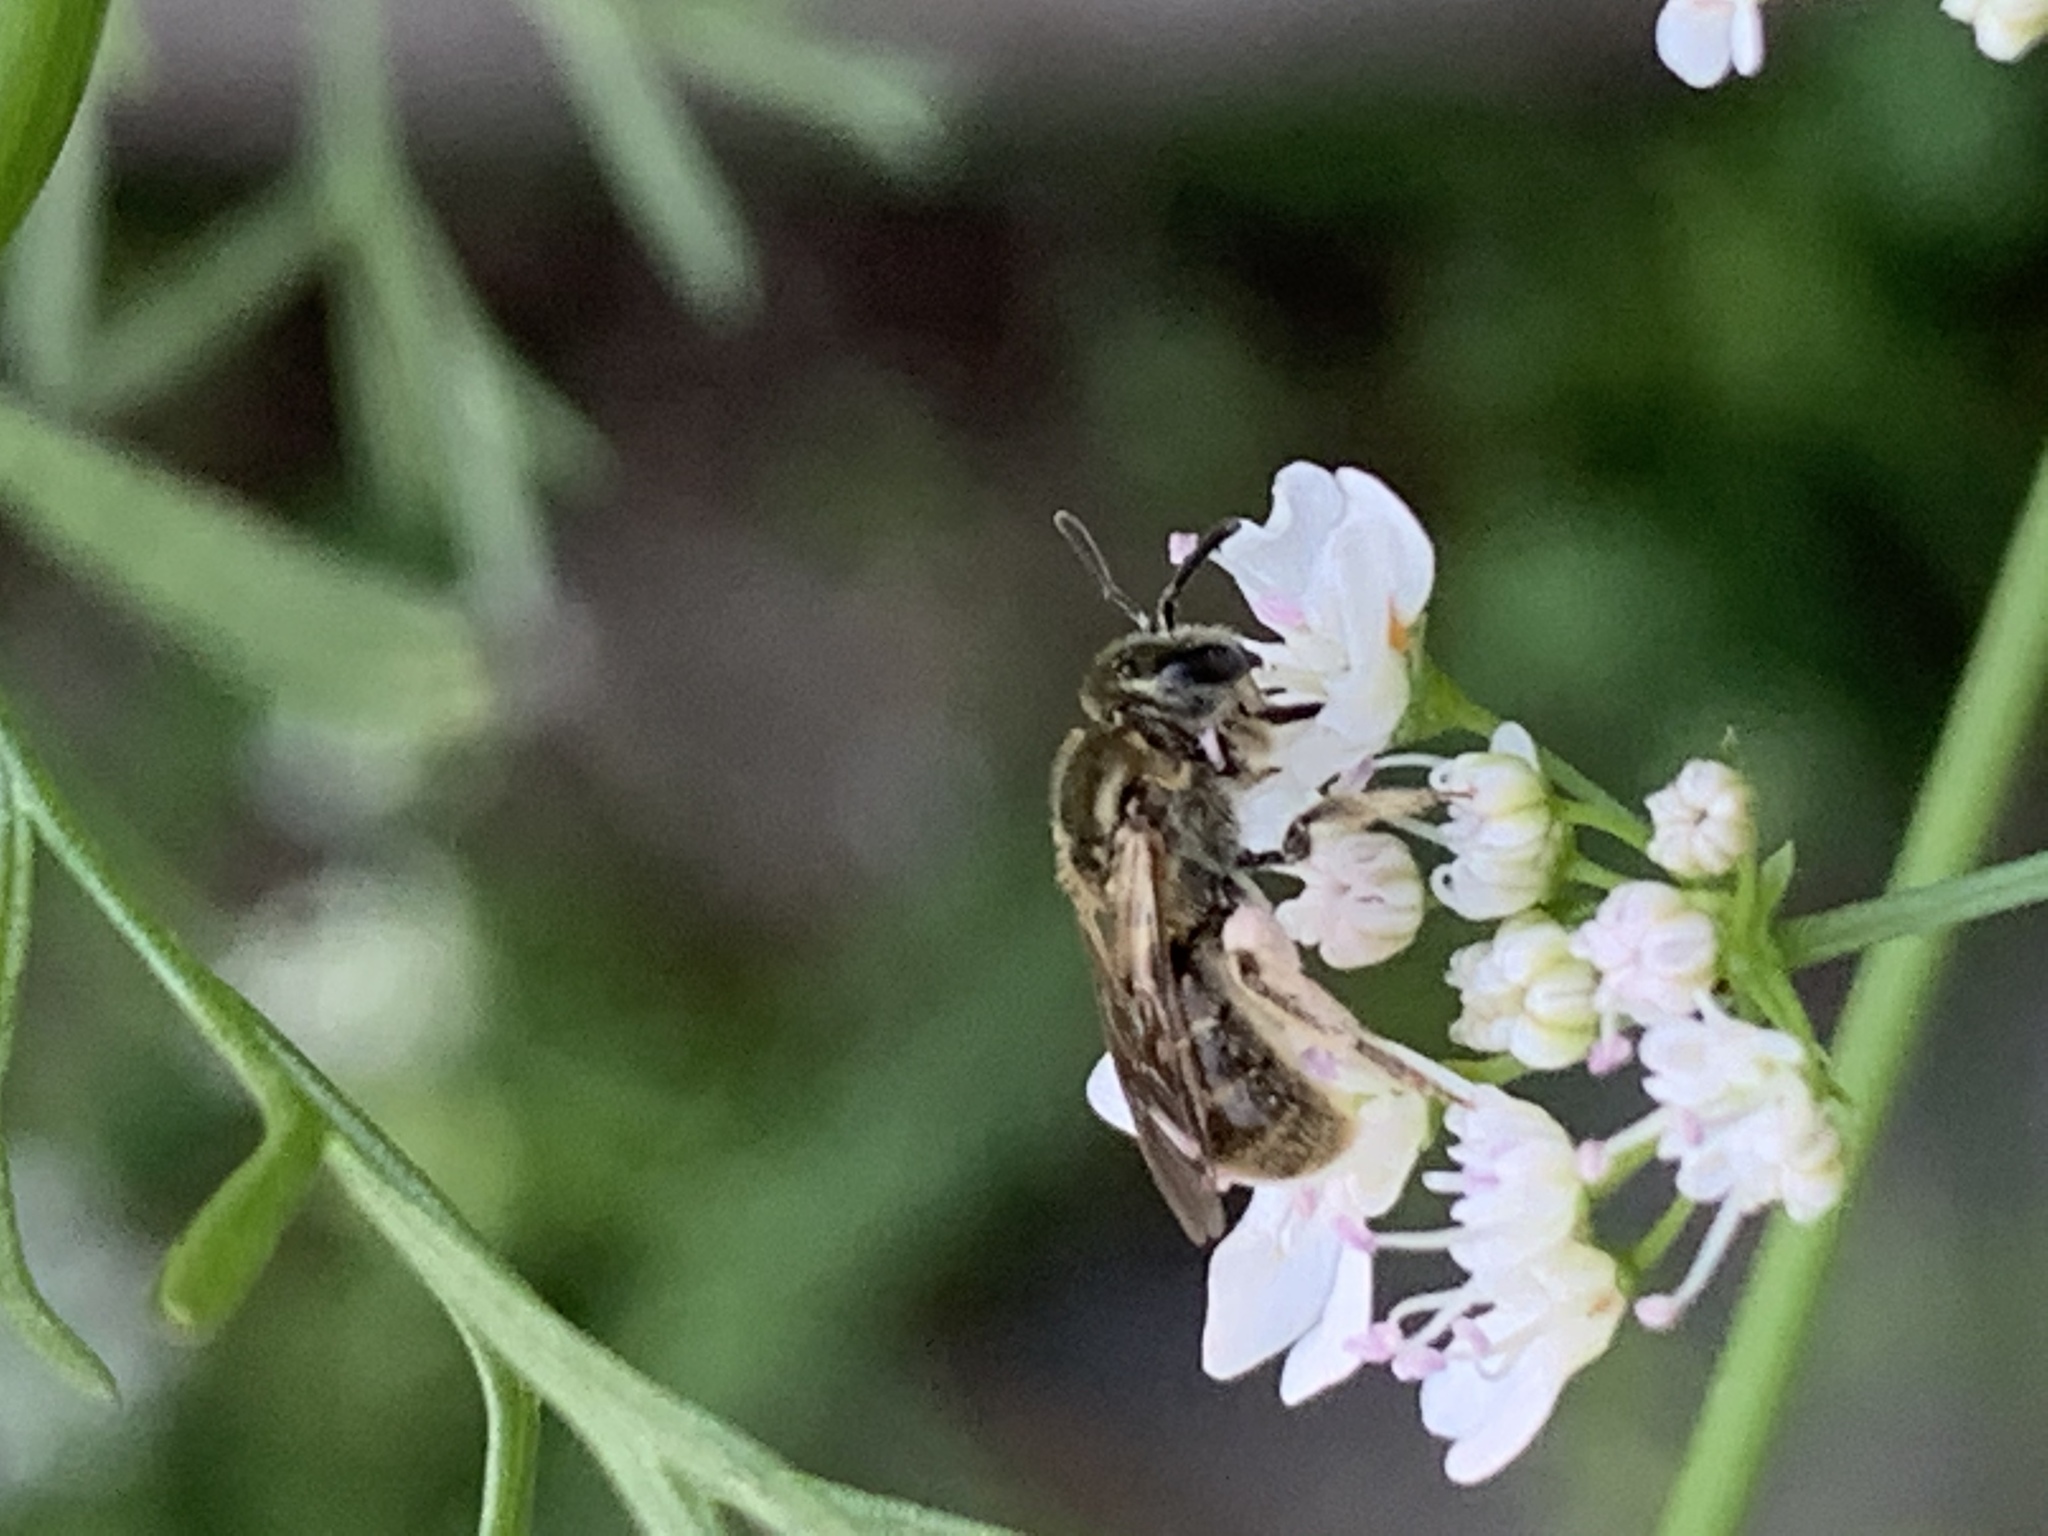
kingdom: Animalia
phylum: Arthropoda
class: Insecta
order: Hymenoptera
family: Halictidae
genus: Dialictus
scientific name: Dialictus
